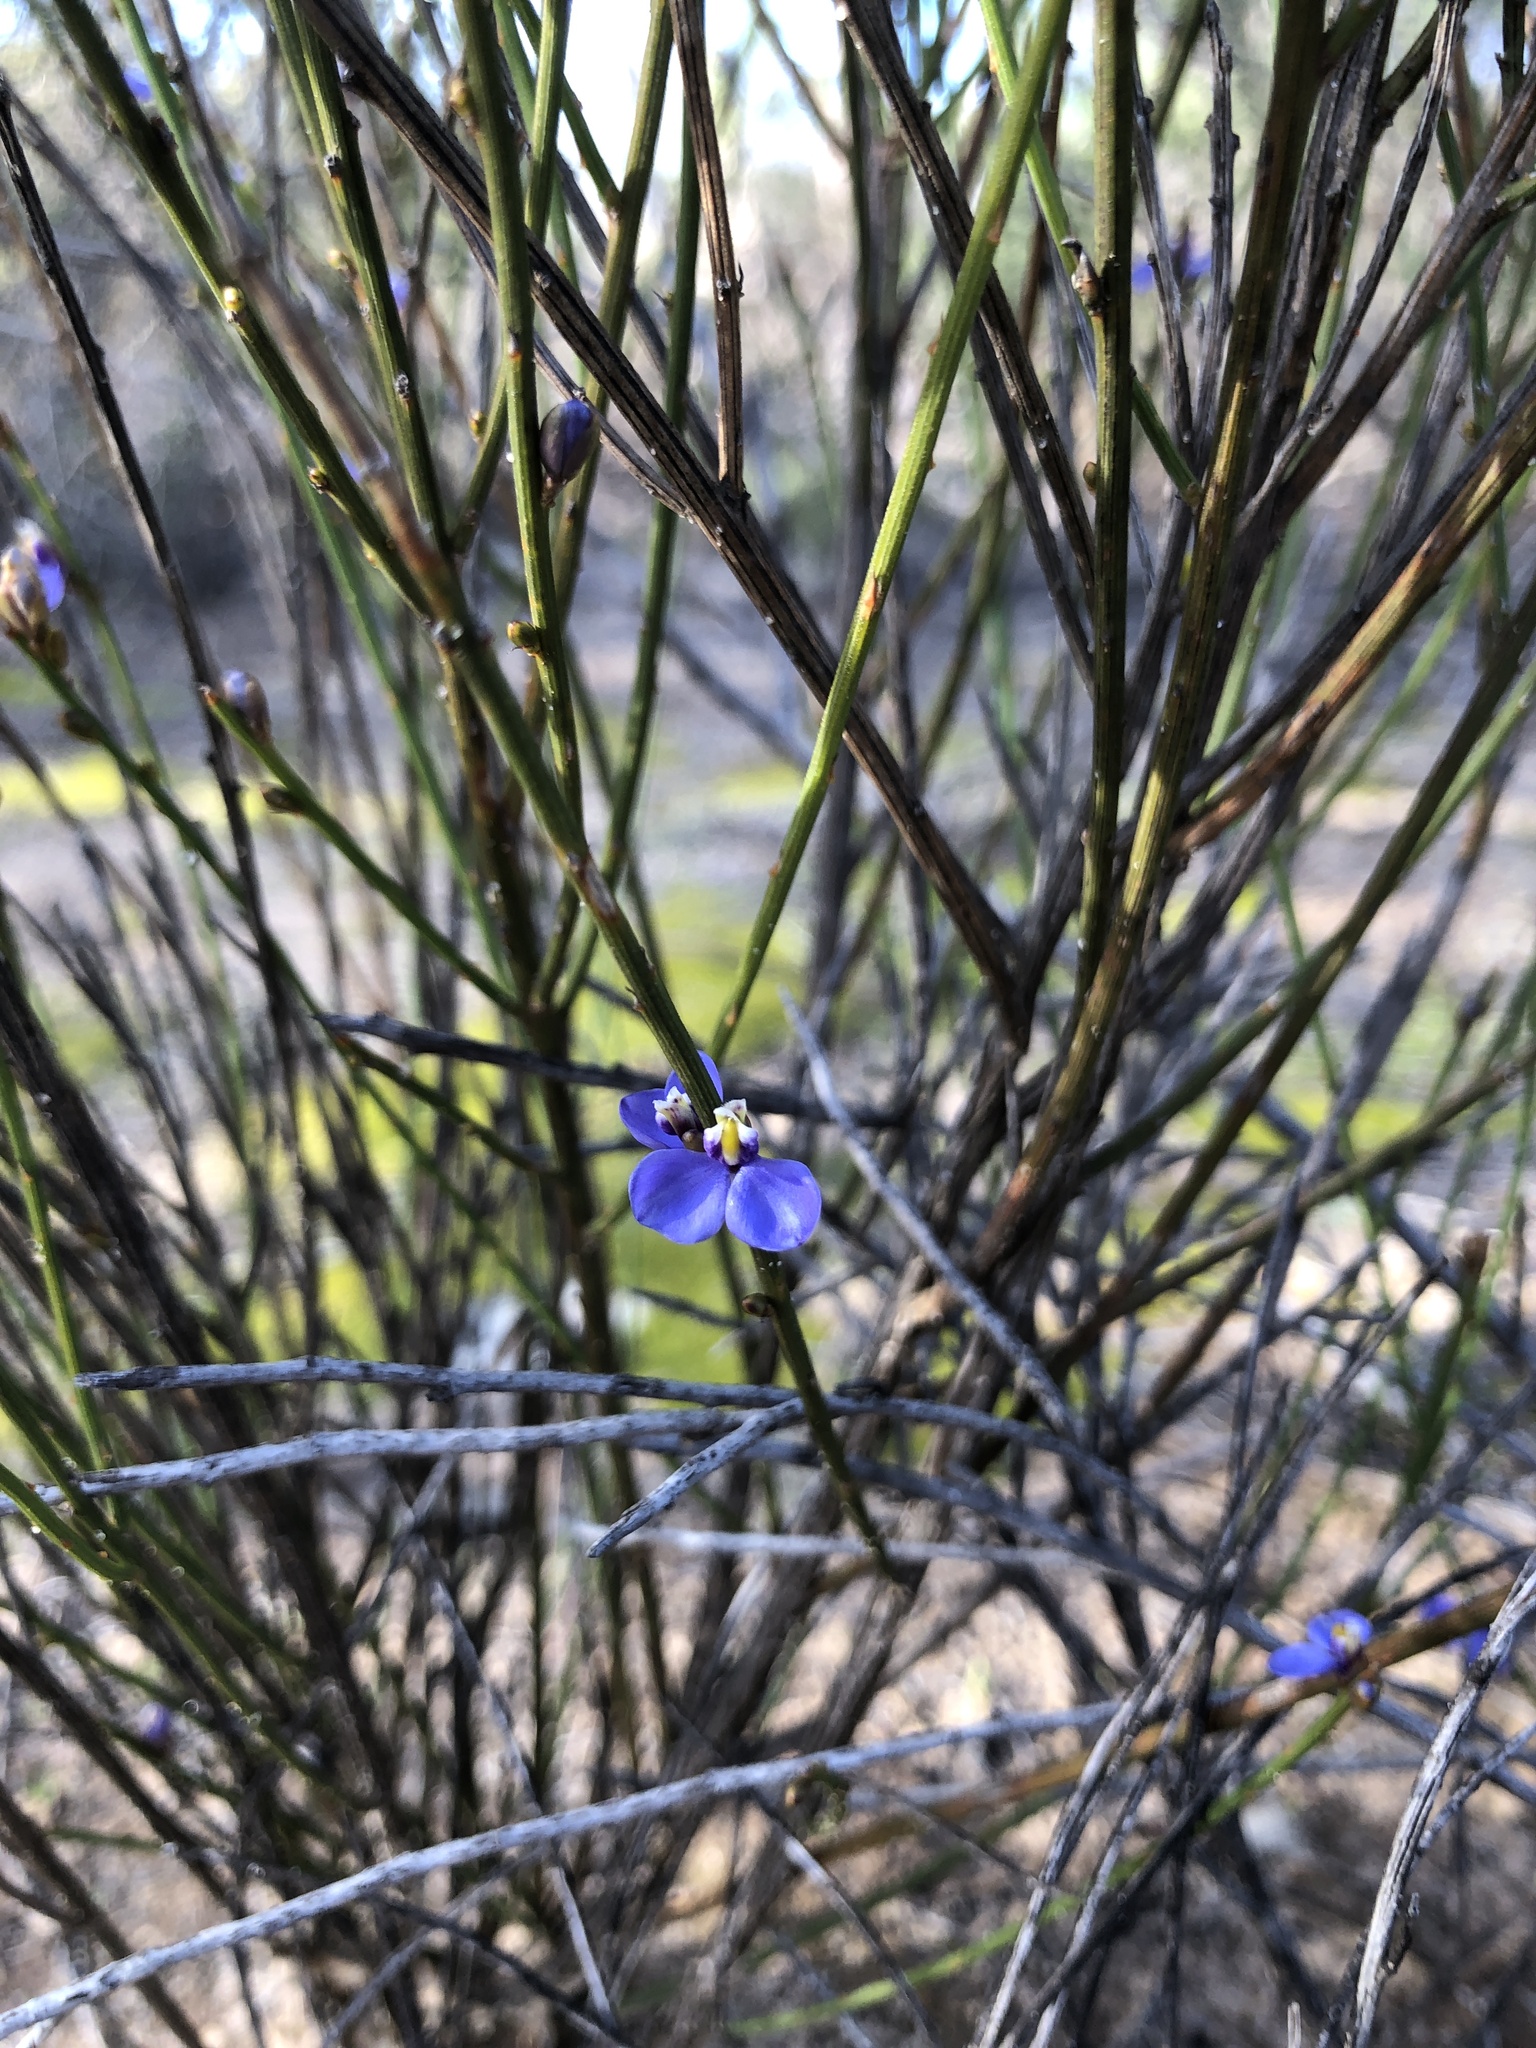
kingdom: Plantae
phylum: Tracheophyta
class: Magnoliopsida
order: Fabales
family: Polygalaceae
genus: Comesperma
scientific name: Comesperma scoparium
